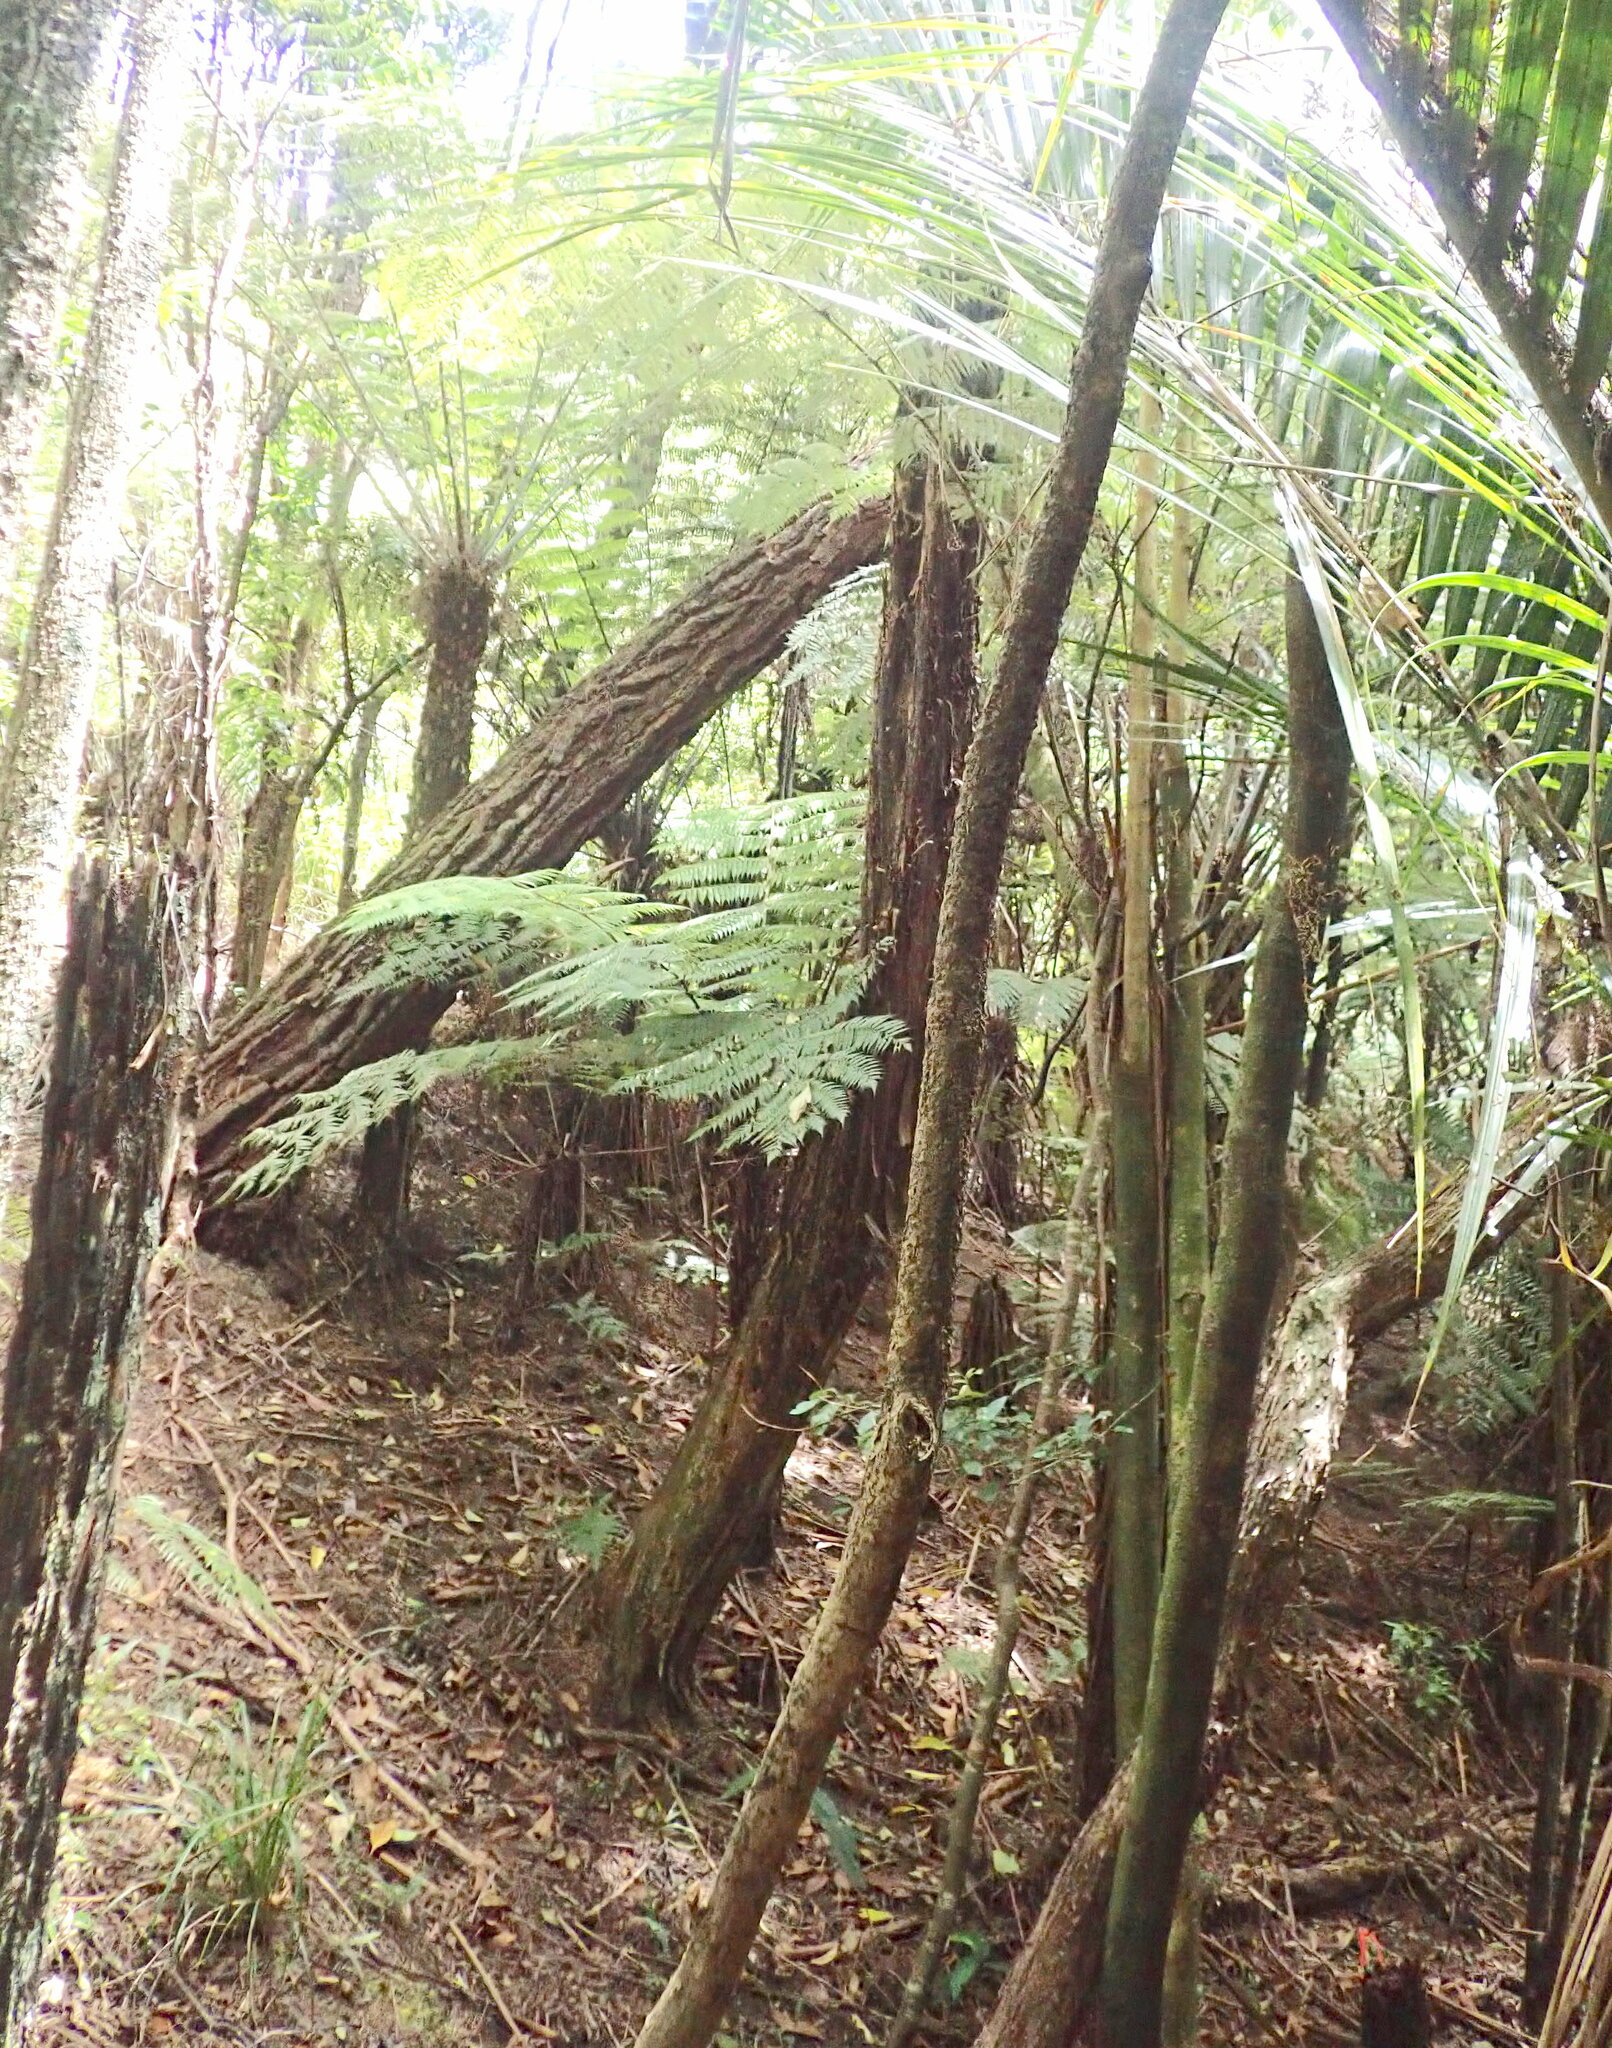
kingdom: Plantae
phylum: Tracheophyta
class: Magnoliopsida
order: Myrtales
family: Myrtaceae
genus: Kunzea
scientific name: Kunzea robusta
